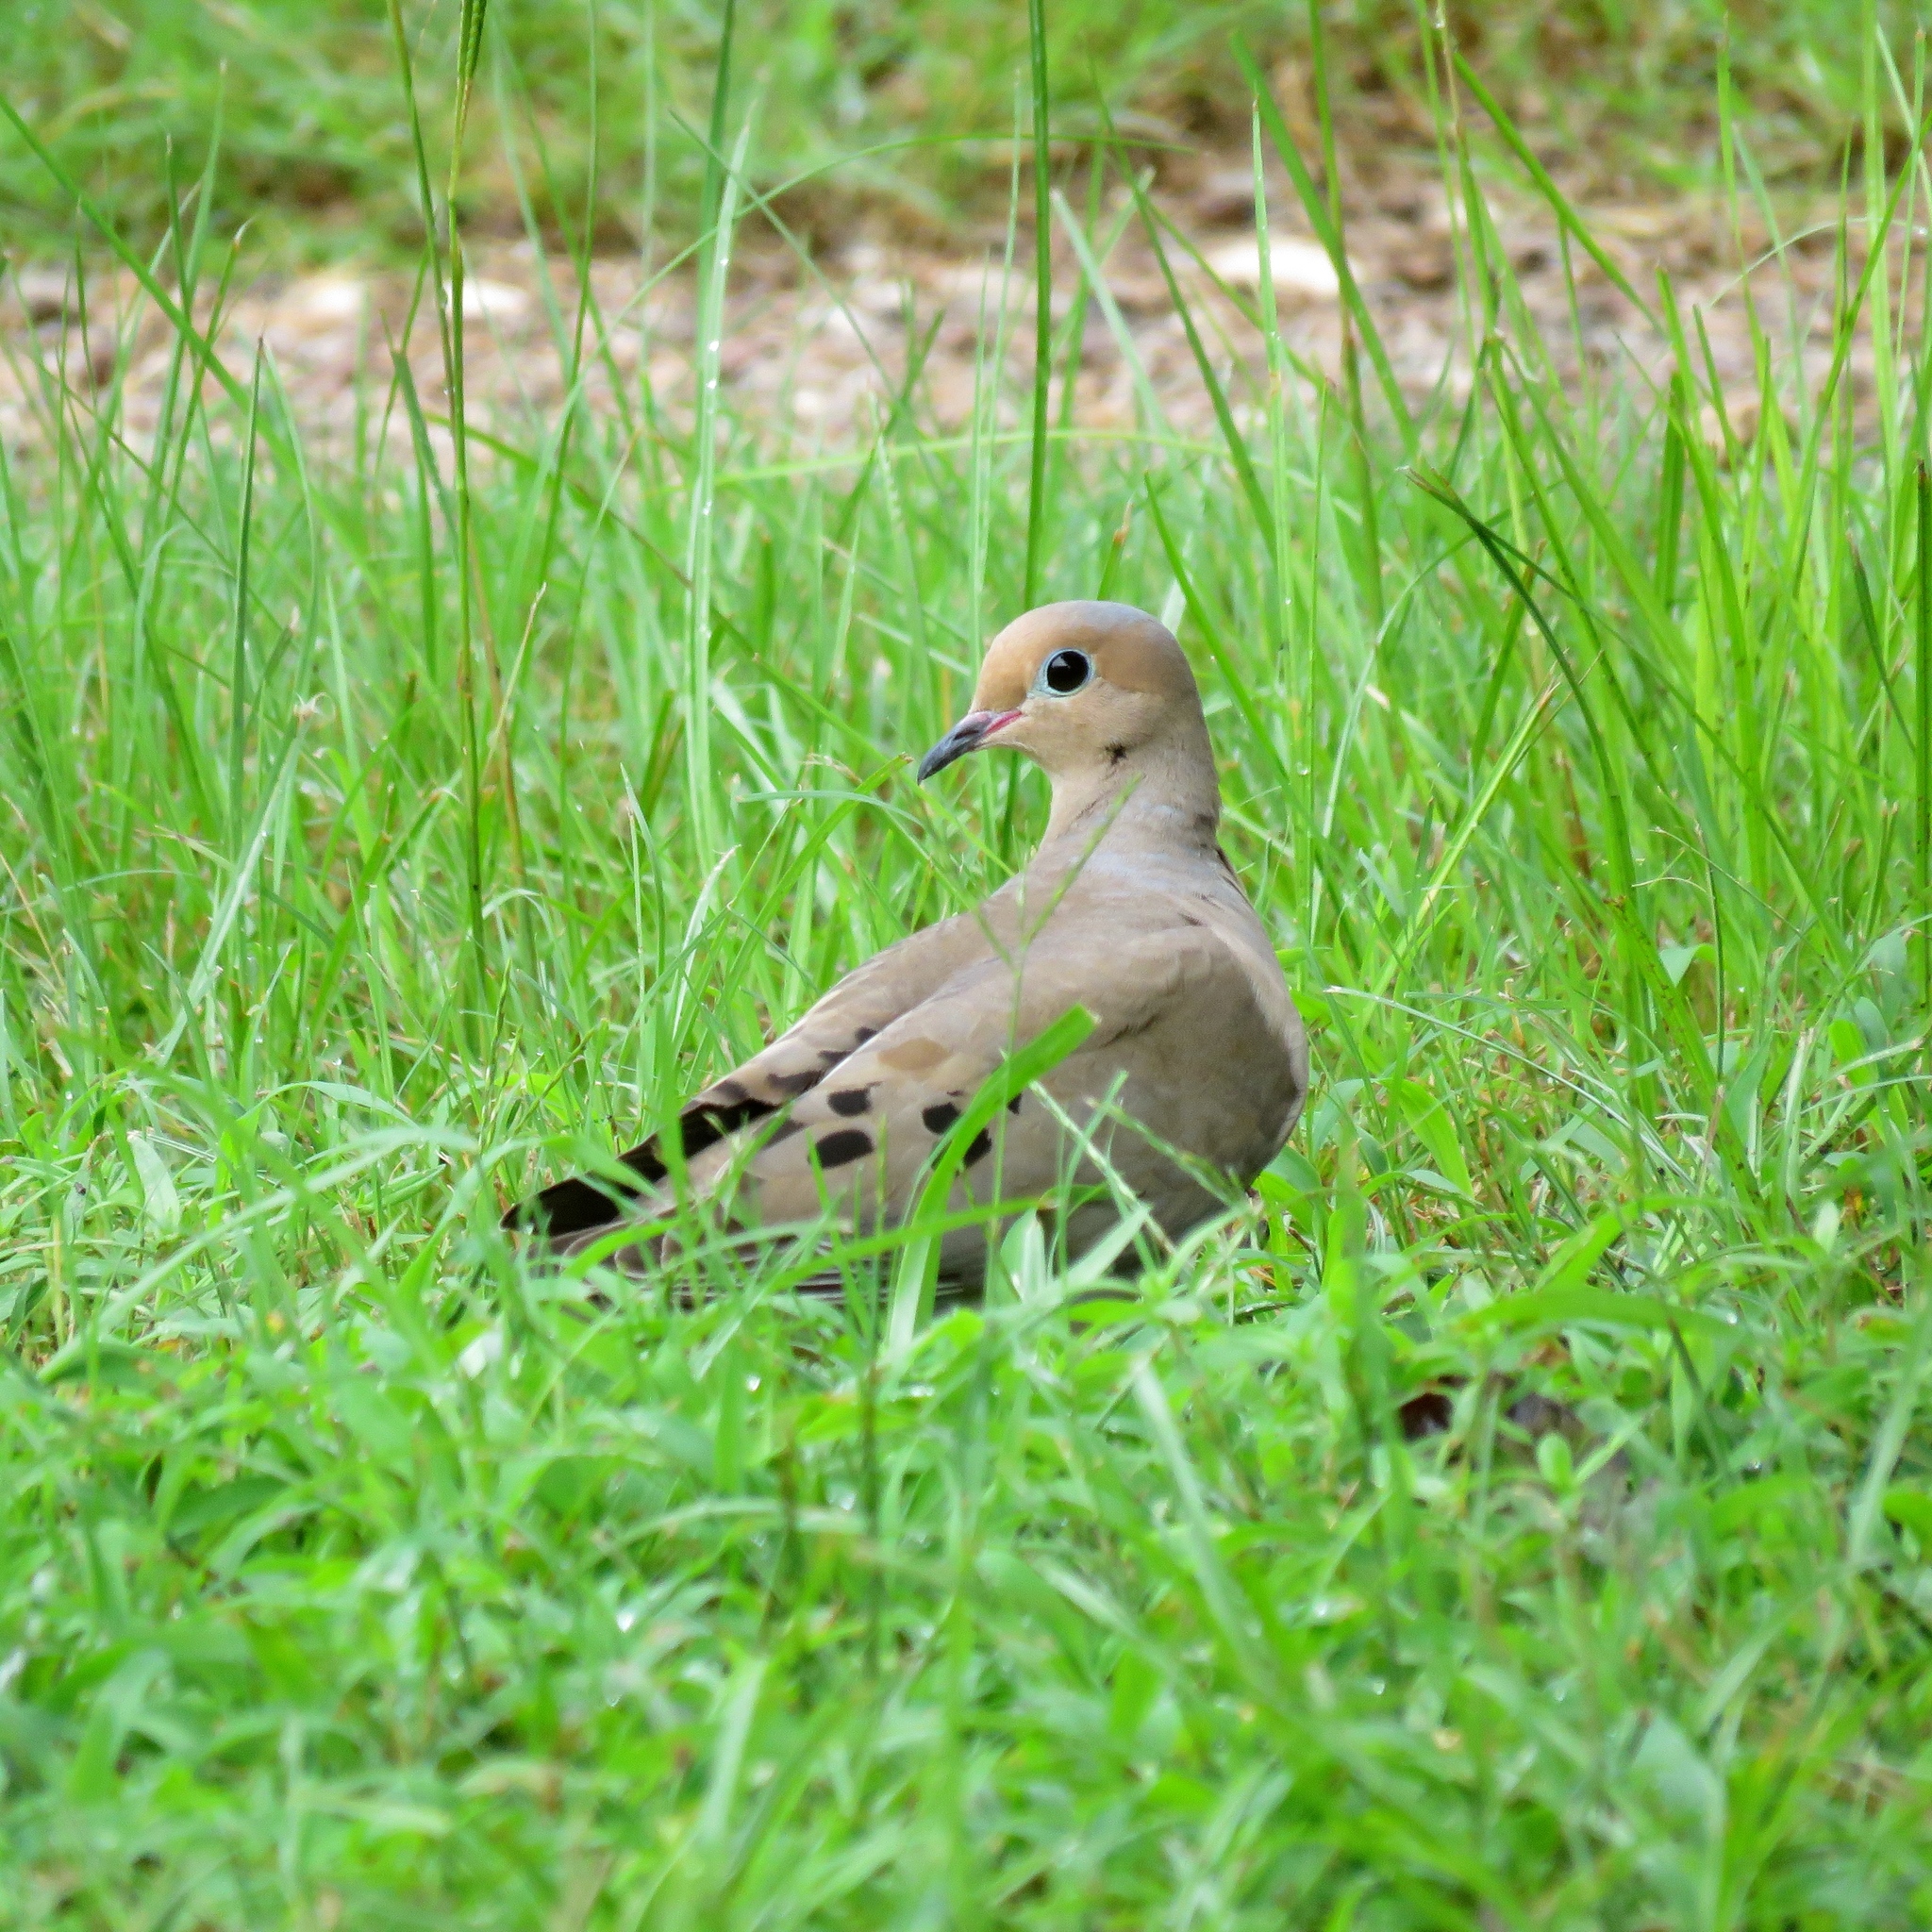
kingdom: Animalia
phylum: Chordata
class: Aves
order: Columbiformes
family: Columbidae
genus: Zenaida
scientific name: Zenaida macroura
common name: Mourning dove
